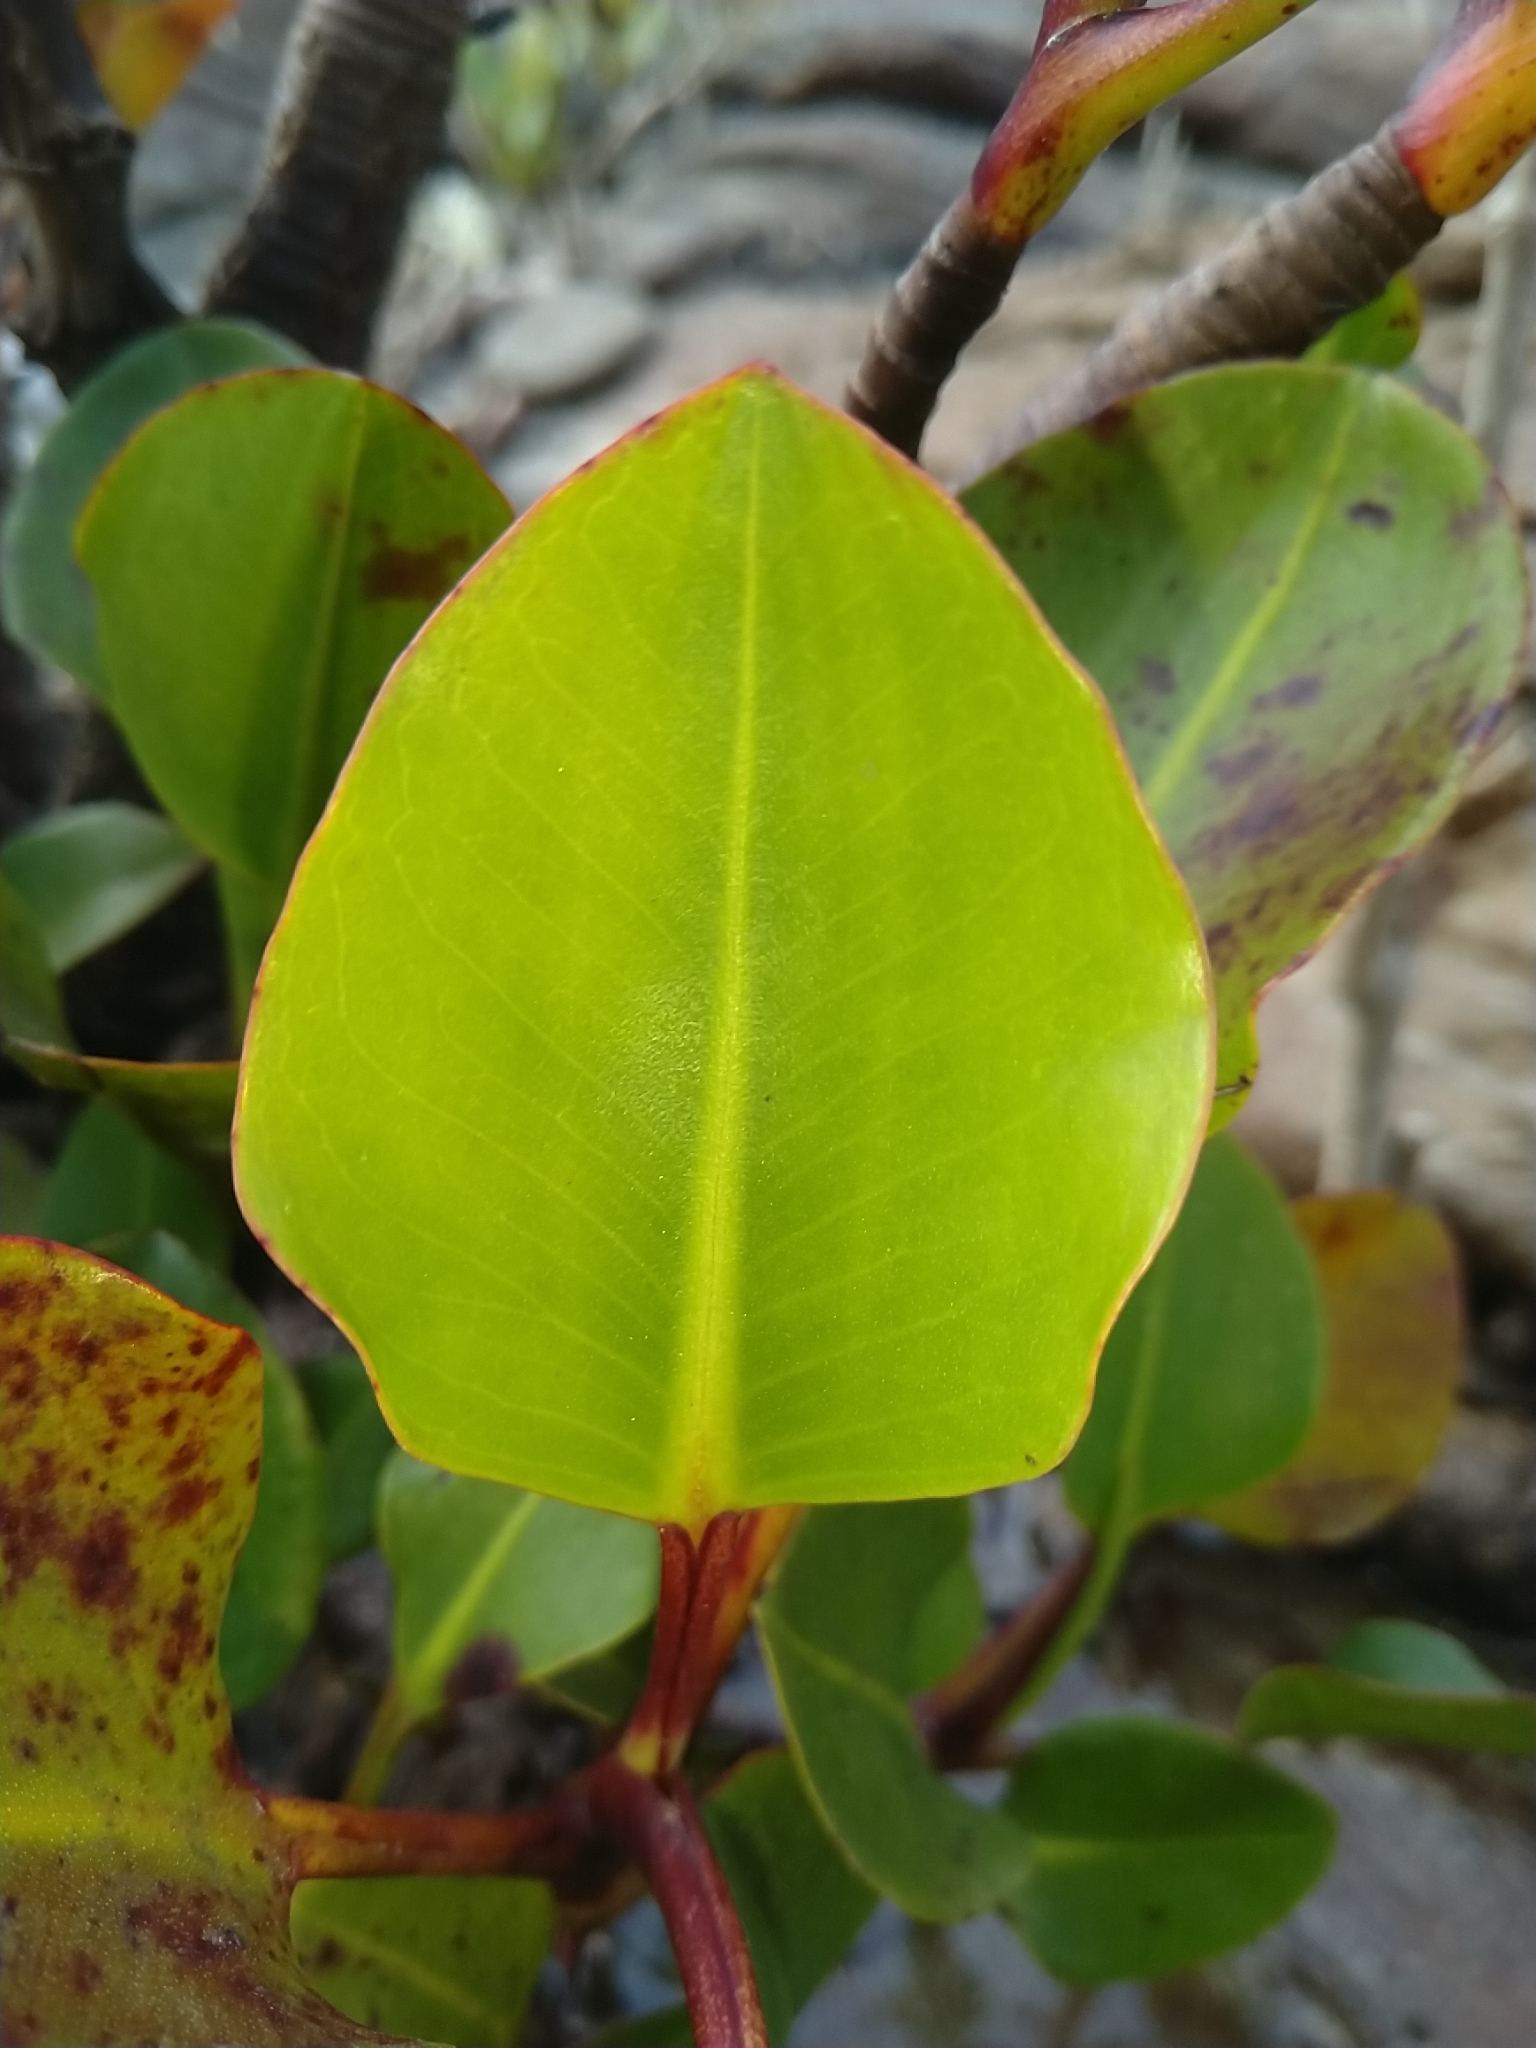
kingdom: Plantae
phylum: Tracheophyta
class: Magnoliopsida
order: Caryophyllales
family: Plumbaginaceae
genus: Aegialitis
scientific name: Aegialitis annulata
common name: Club mangrove
